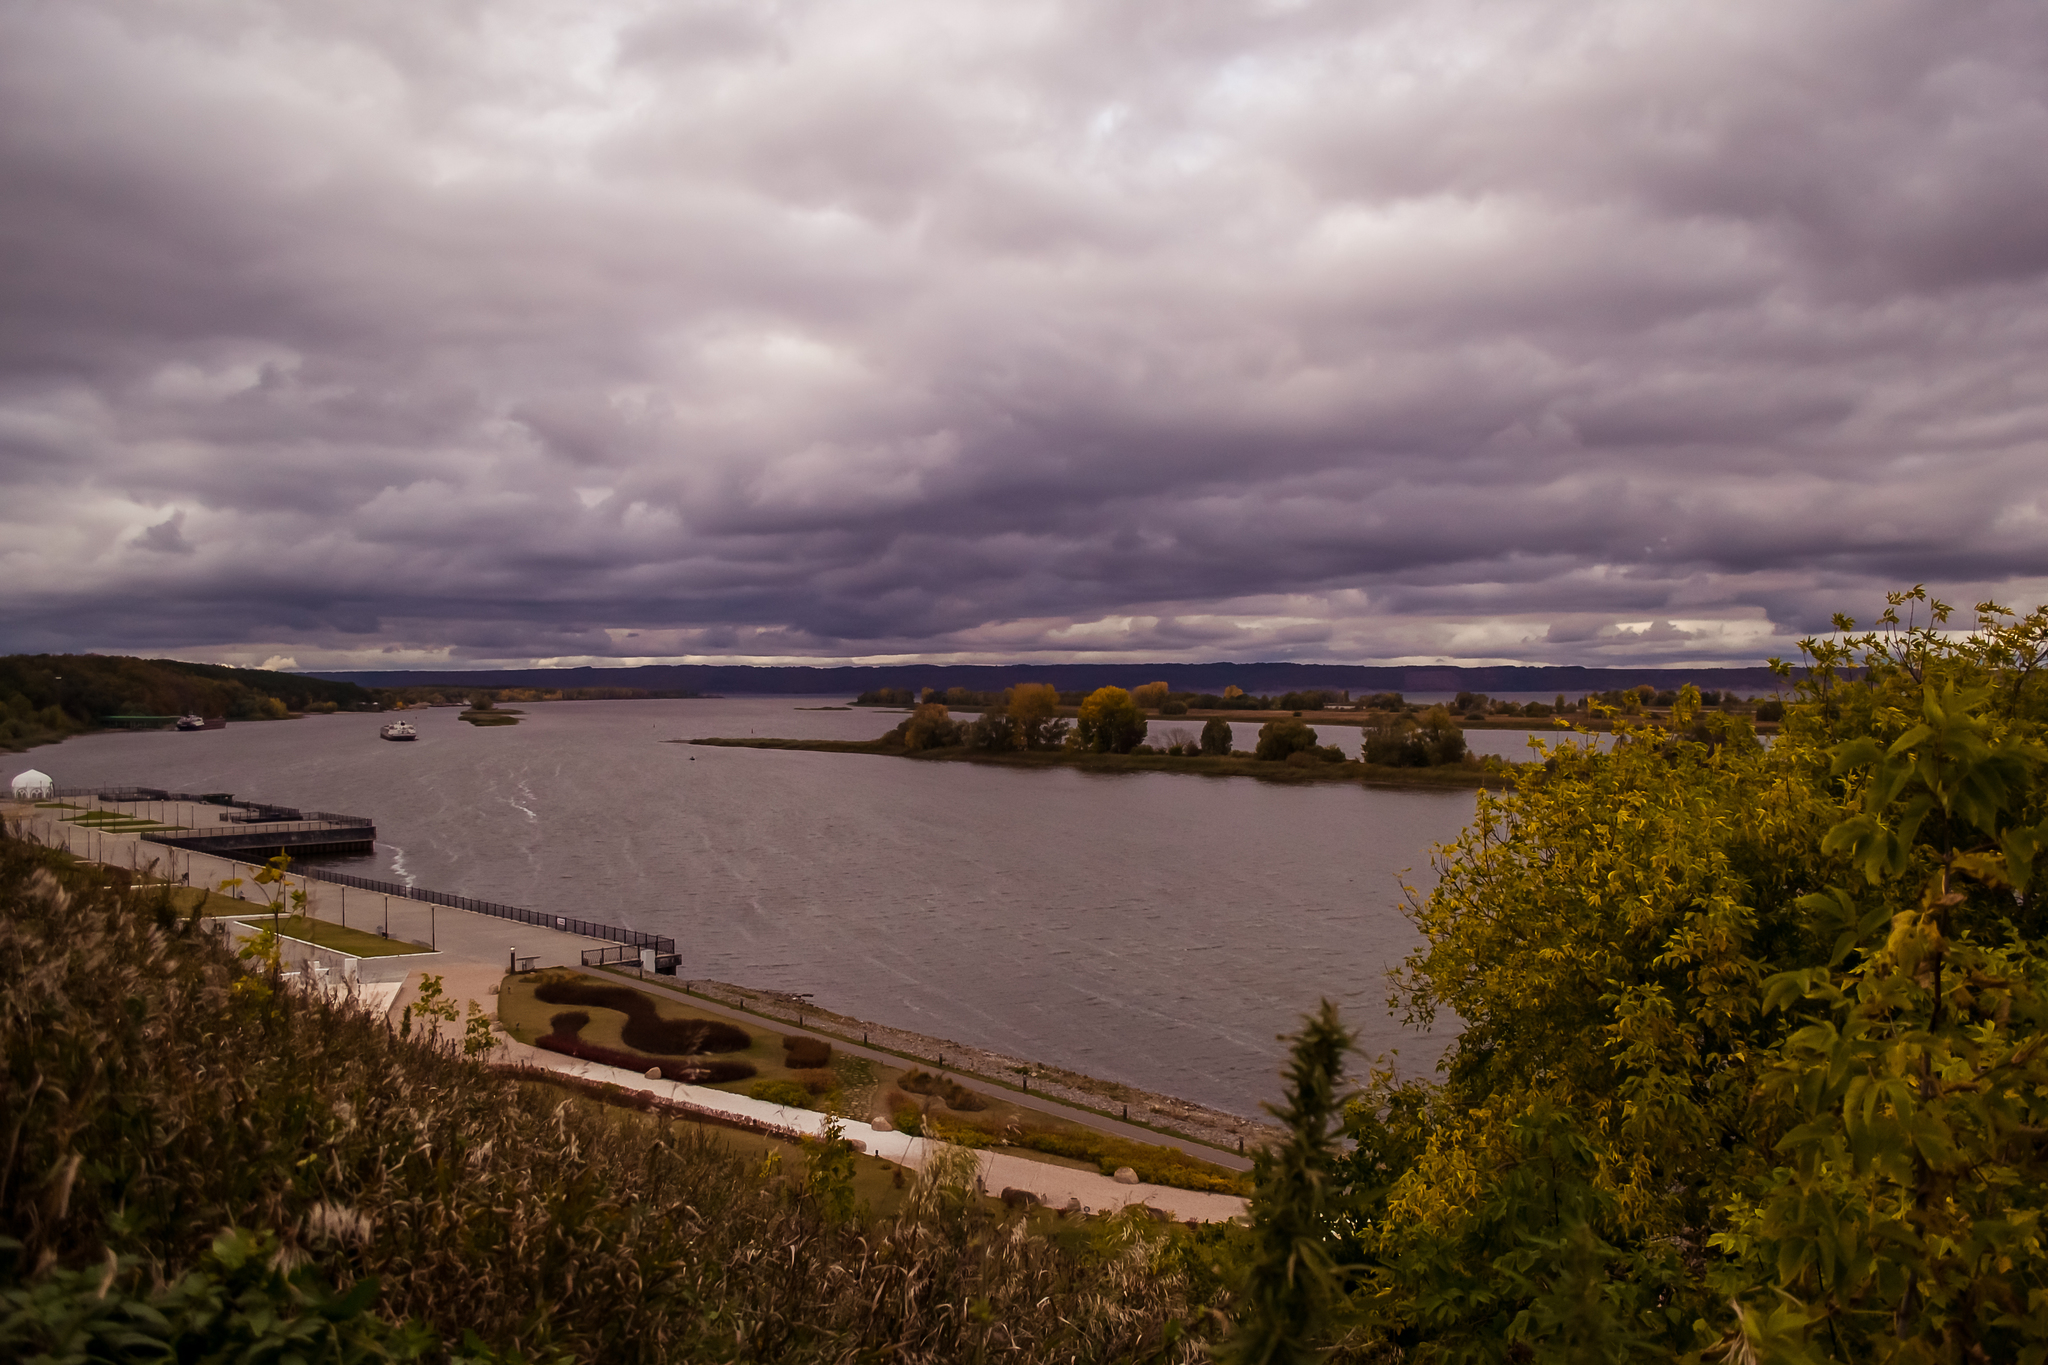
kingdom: Plantae
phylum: Tracheophyta
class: Magnoliopsida
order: Sapindales
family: Sapindaceae
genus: Acer
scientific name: Acer negundo
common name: Ashleaf maple
